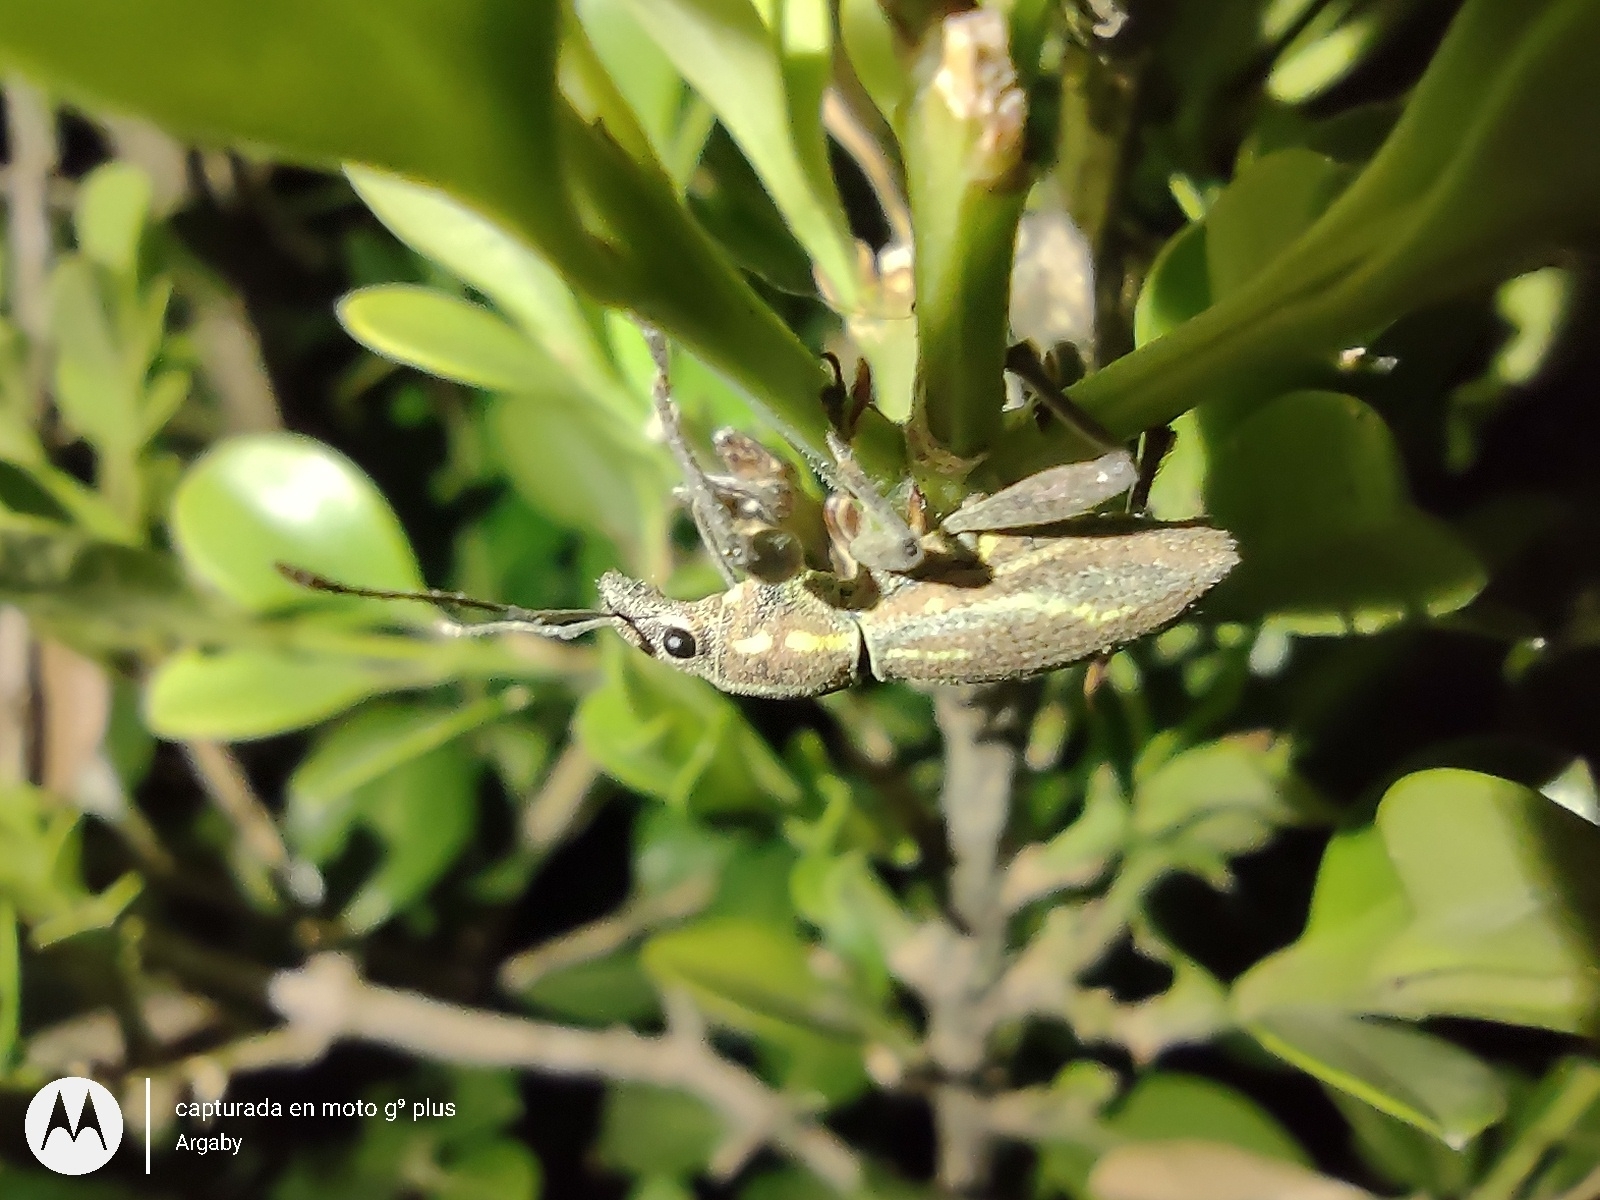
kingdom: Animalia
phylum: Arthropoda
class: Insecta
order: Coleoptera
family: Curculionidae
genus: Naupactus
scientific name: Naupactus xanthographus
